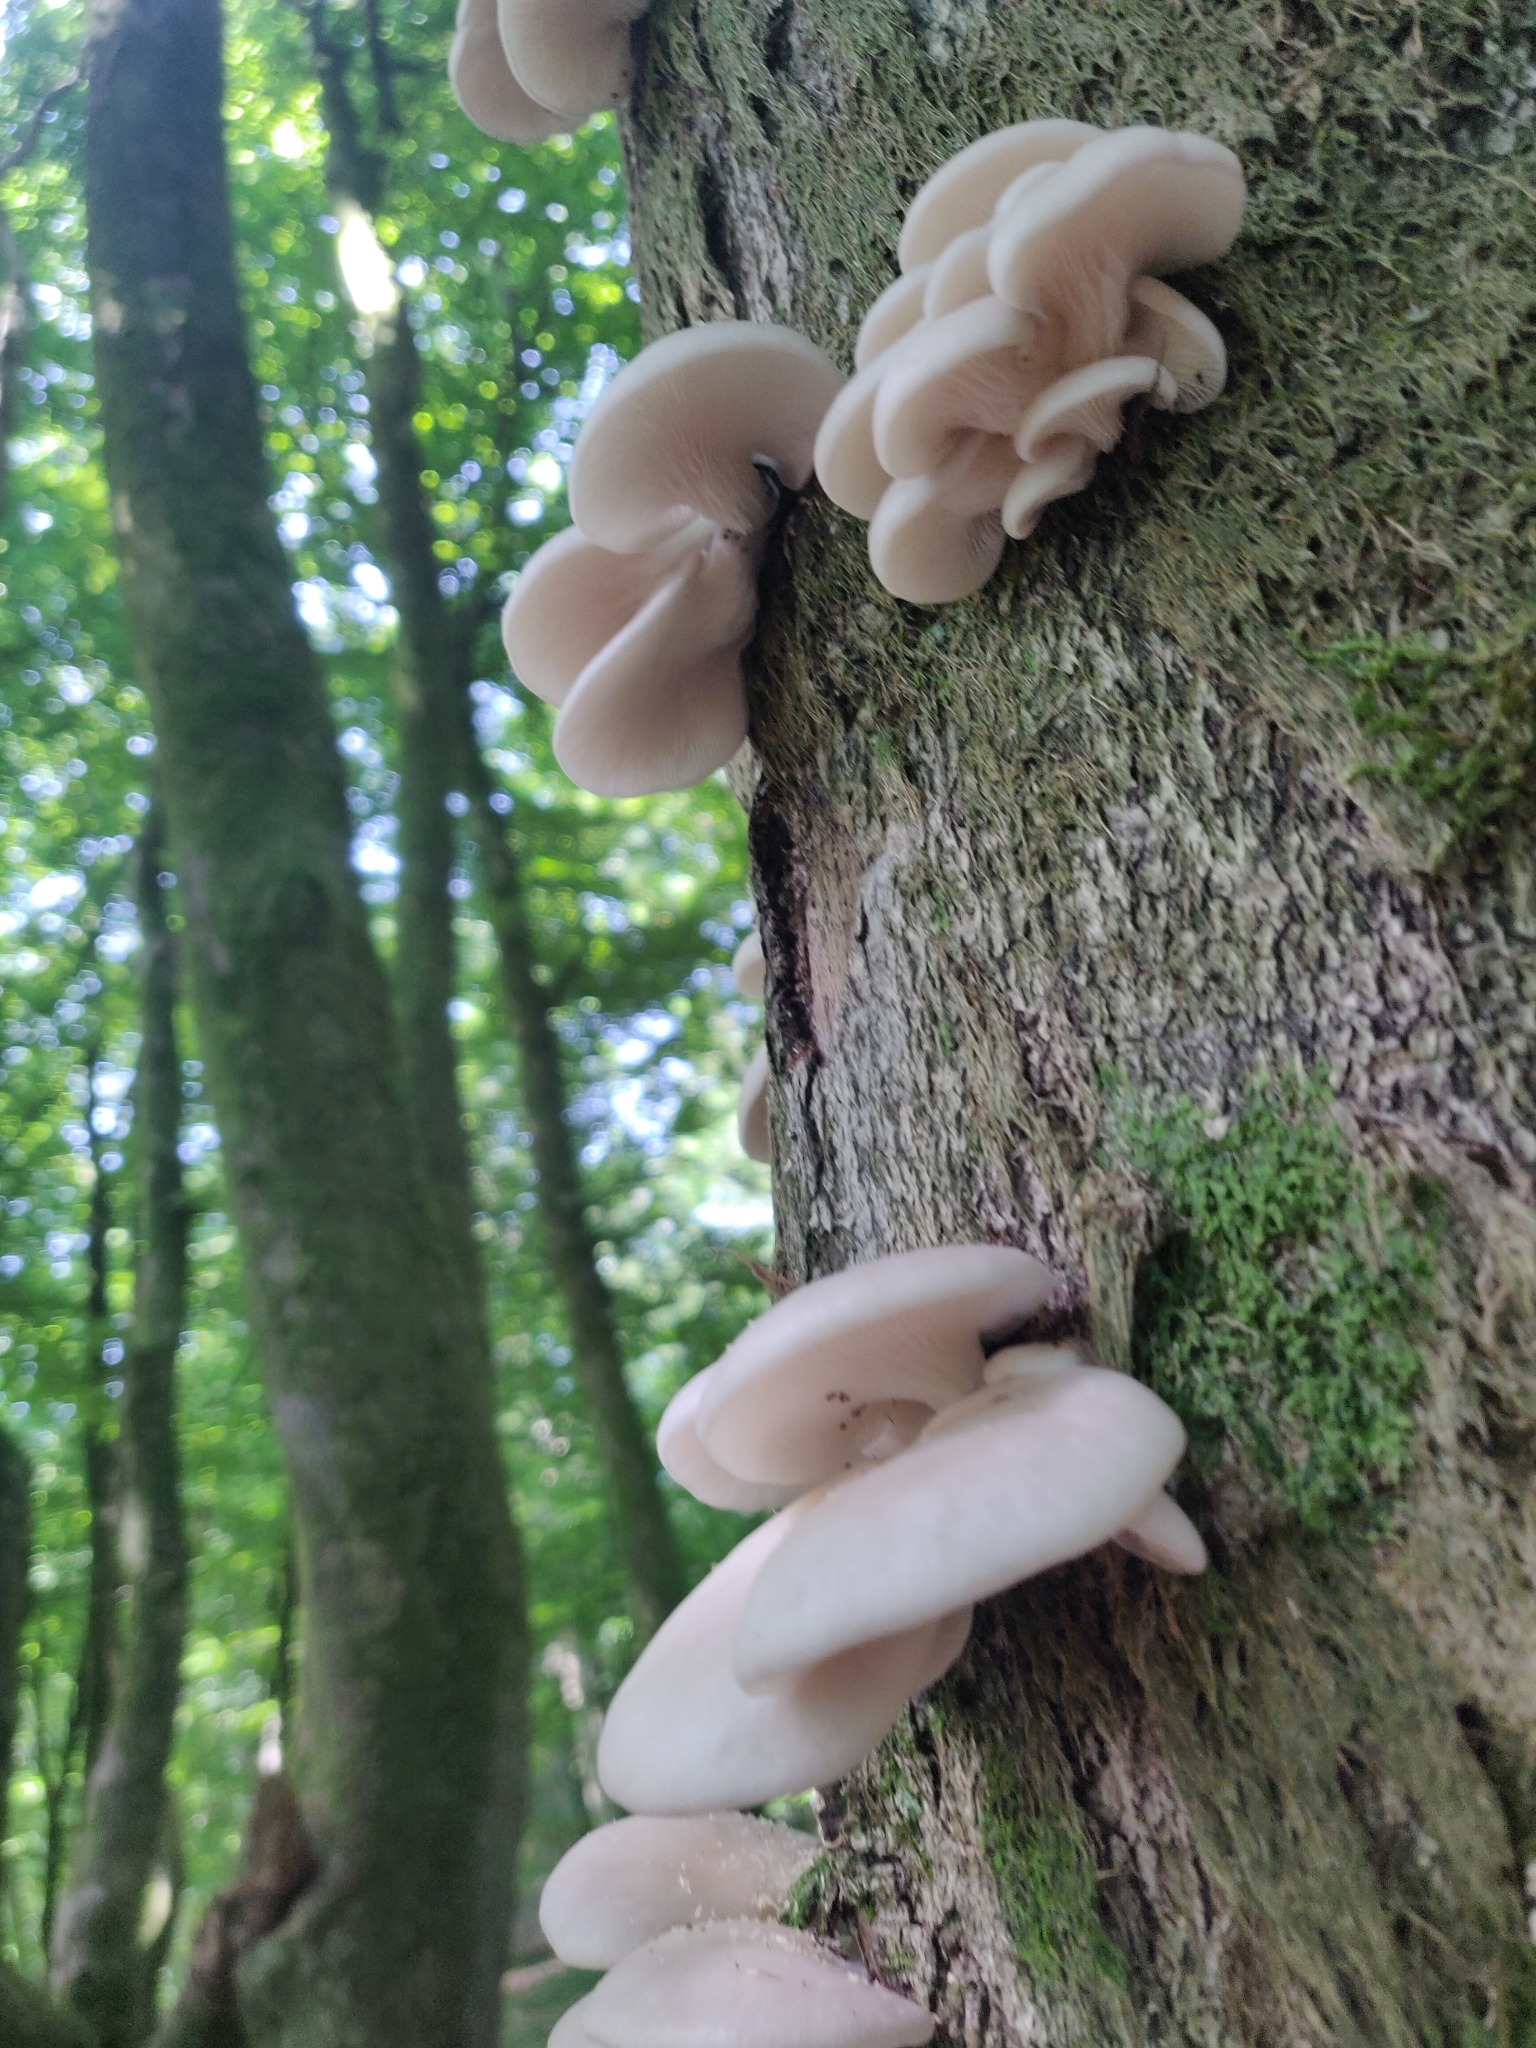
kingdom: Fungi
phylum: Basidiomycota
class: Agaricomycetes
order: Agaricales
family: Pleurotaceae
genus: Pleurotus
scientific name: Pleurotus pulmonarius
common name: Pale oyster
